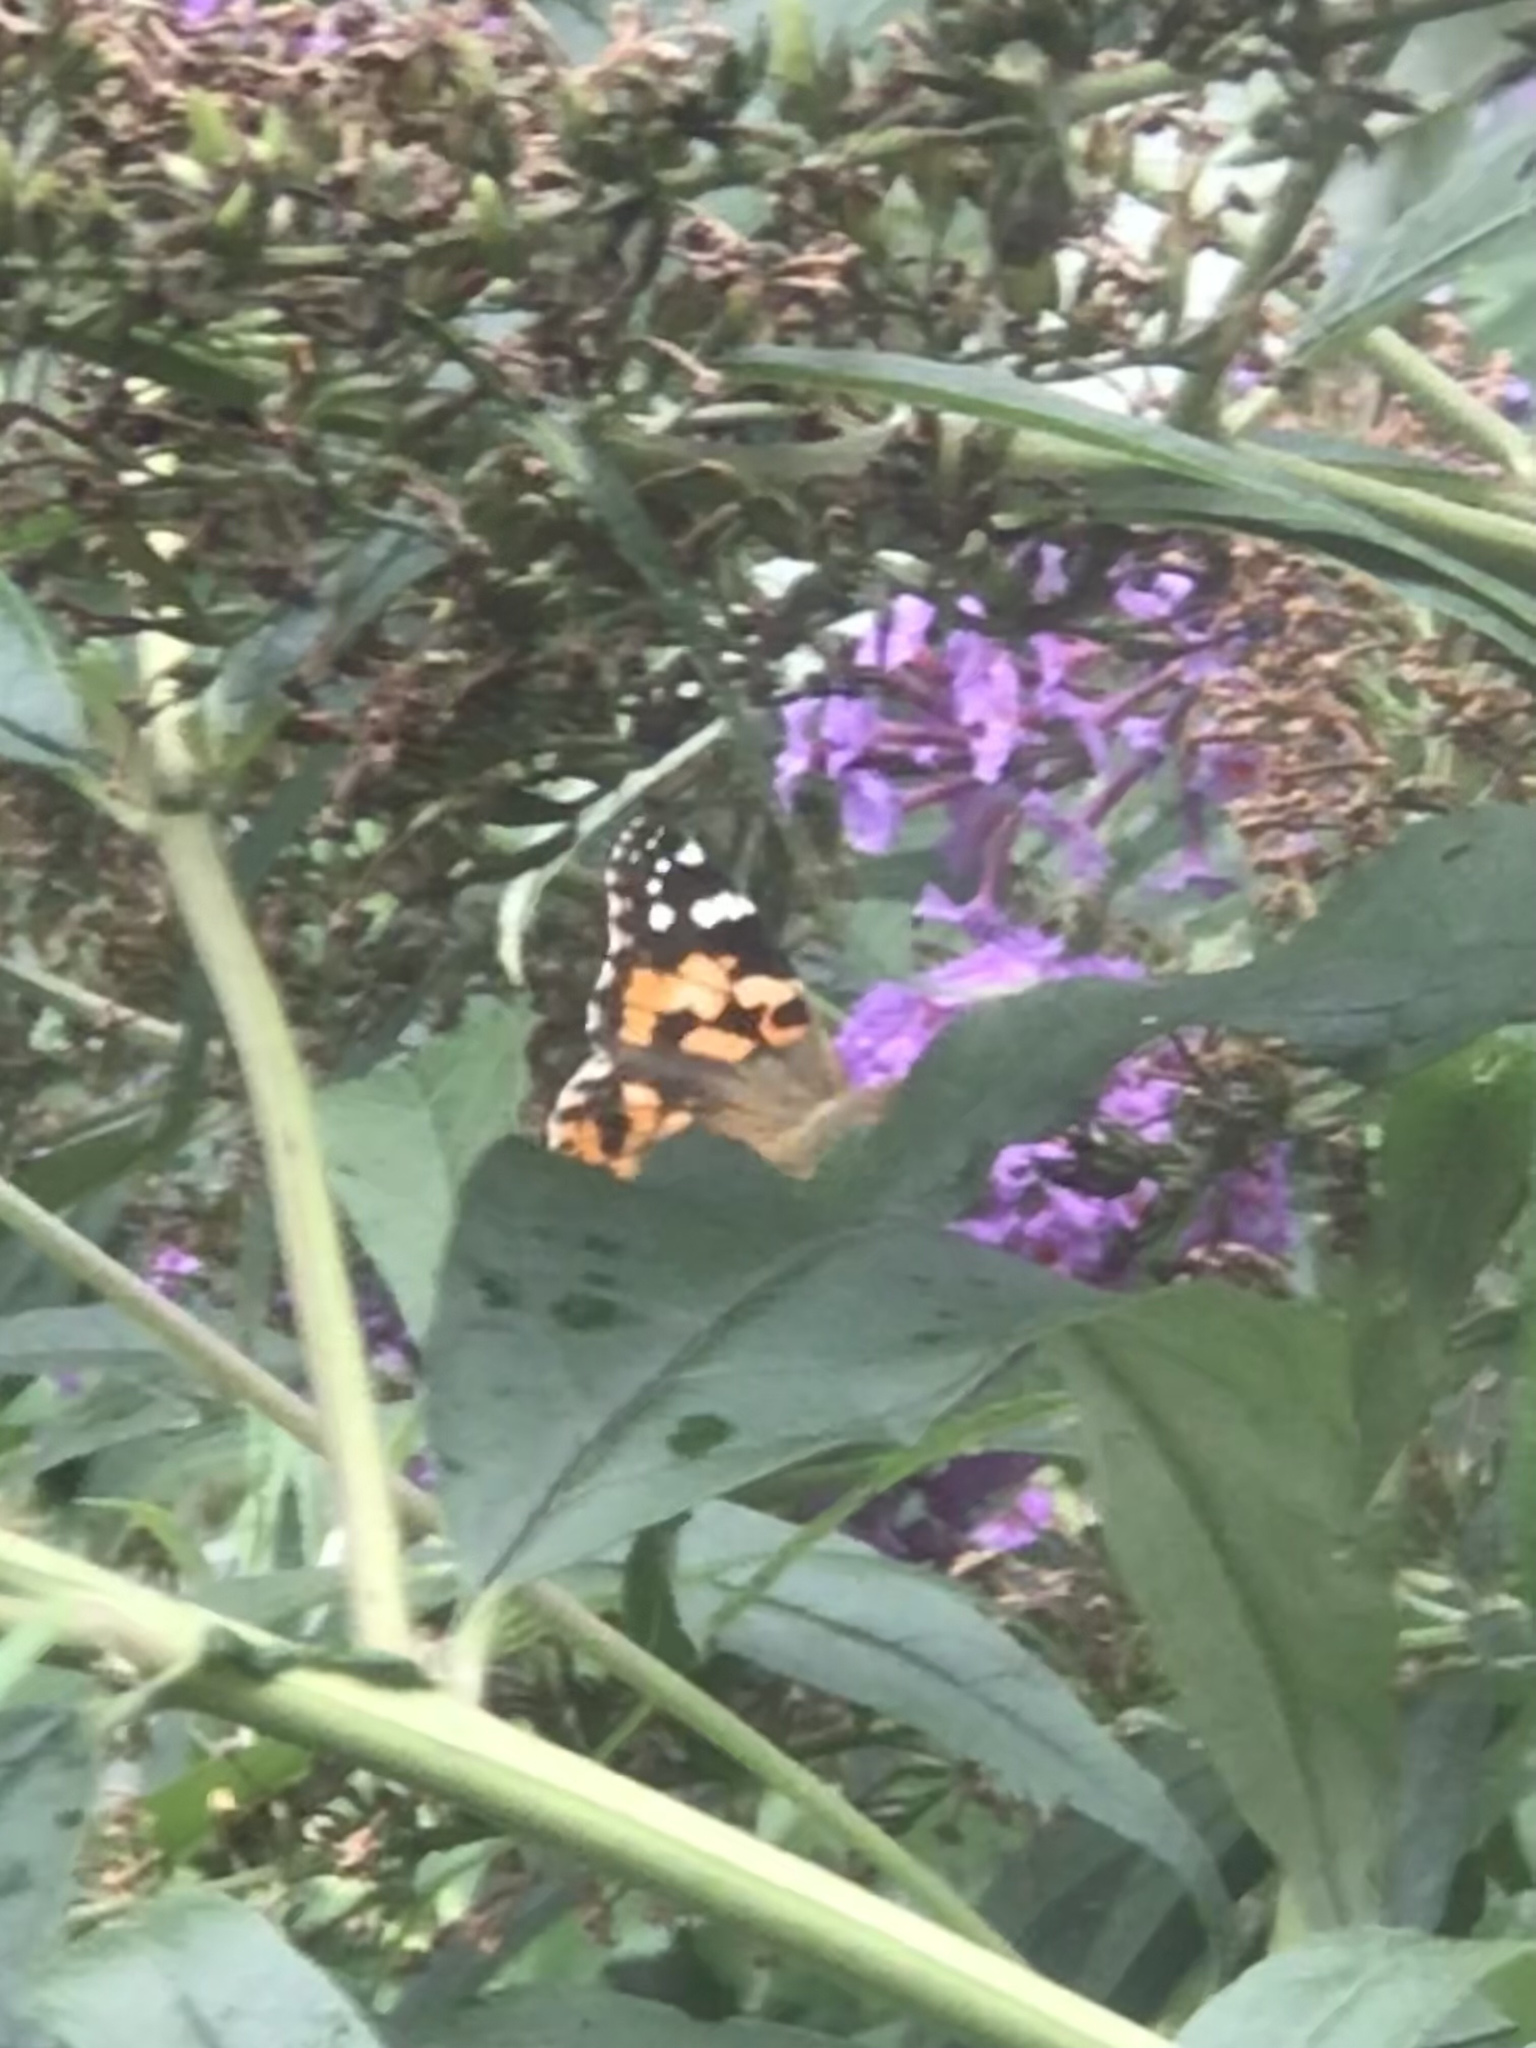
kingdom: Animalia
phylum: Arthropoda
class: Insecta
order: Lepidoptera
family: Nymphalidae
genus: Vanessa
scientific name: Vanessa cardui
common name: Painted lady
